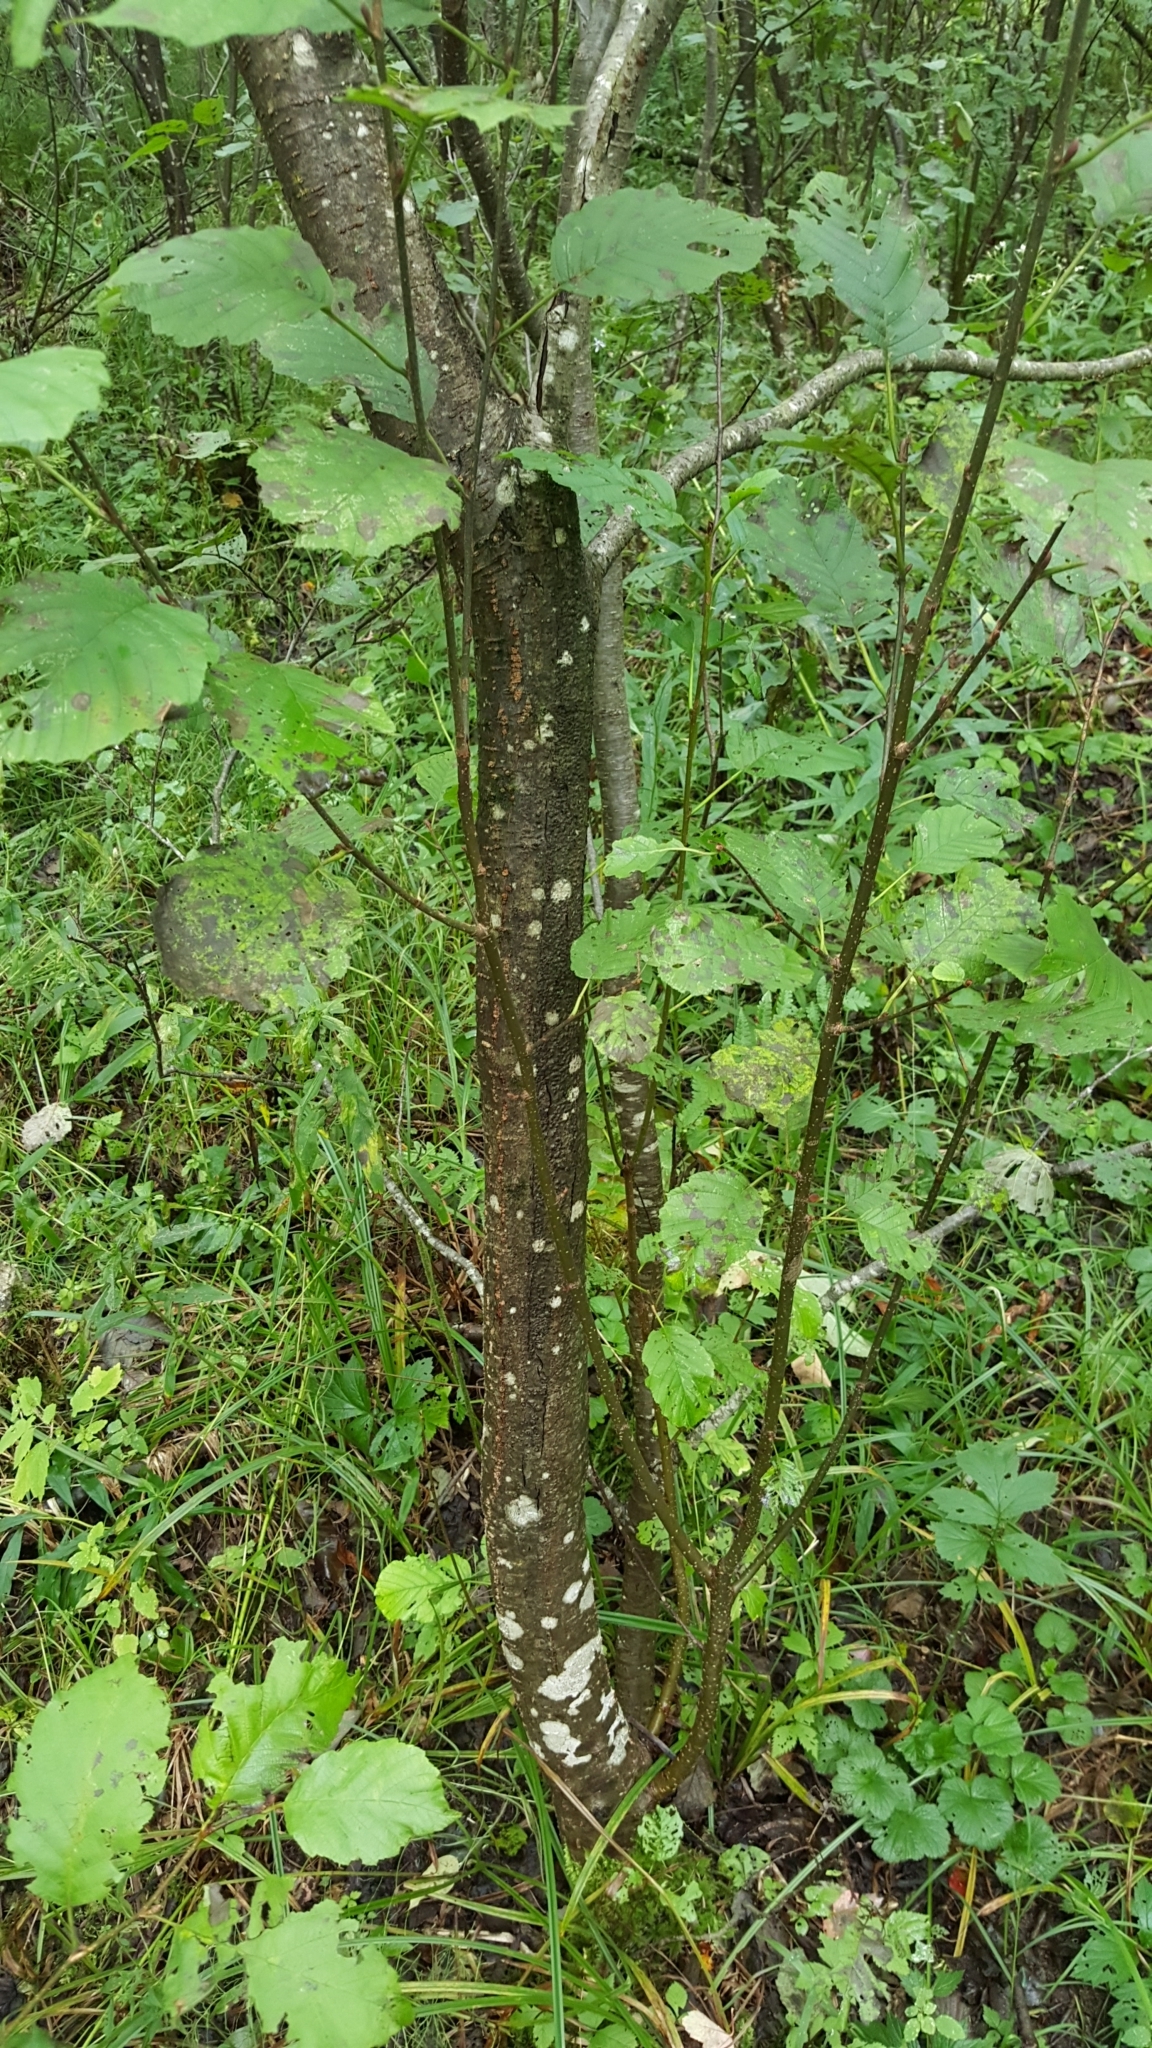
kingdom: Plantae
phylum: Tracheophyta
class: Magnoliopsida
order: Fagales
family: Betulaceae
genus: Alnus
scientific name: Alnus incana
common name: Grey alder
